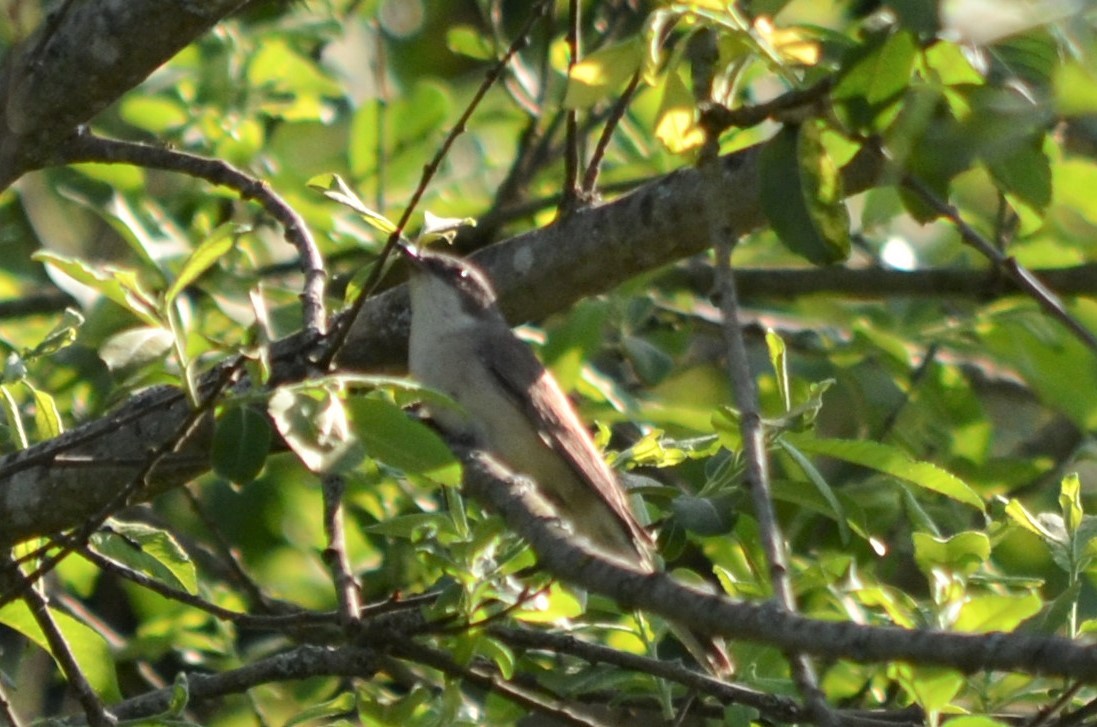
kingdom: Animalia
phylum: Chordata
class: Aves
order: Passeriformes
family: Sylviidae
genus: Sylvia
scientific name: Sylvia curruca
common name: Lesser whitethroat
